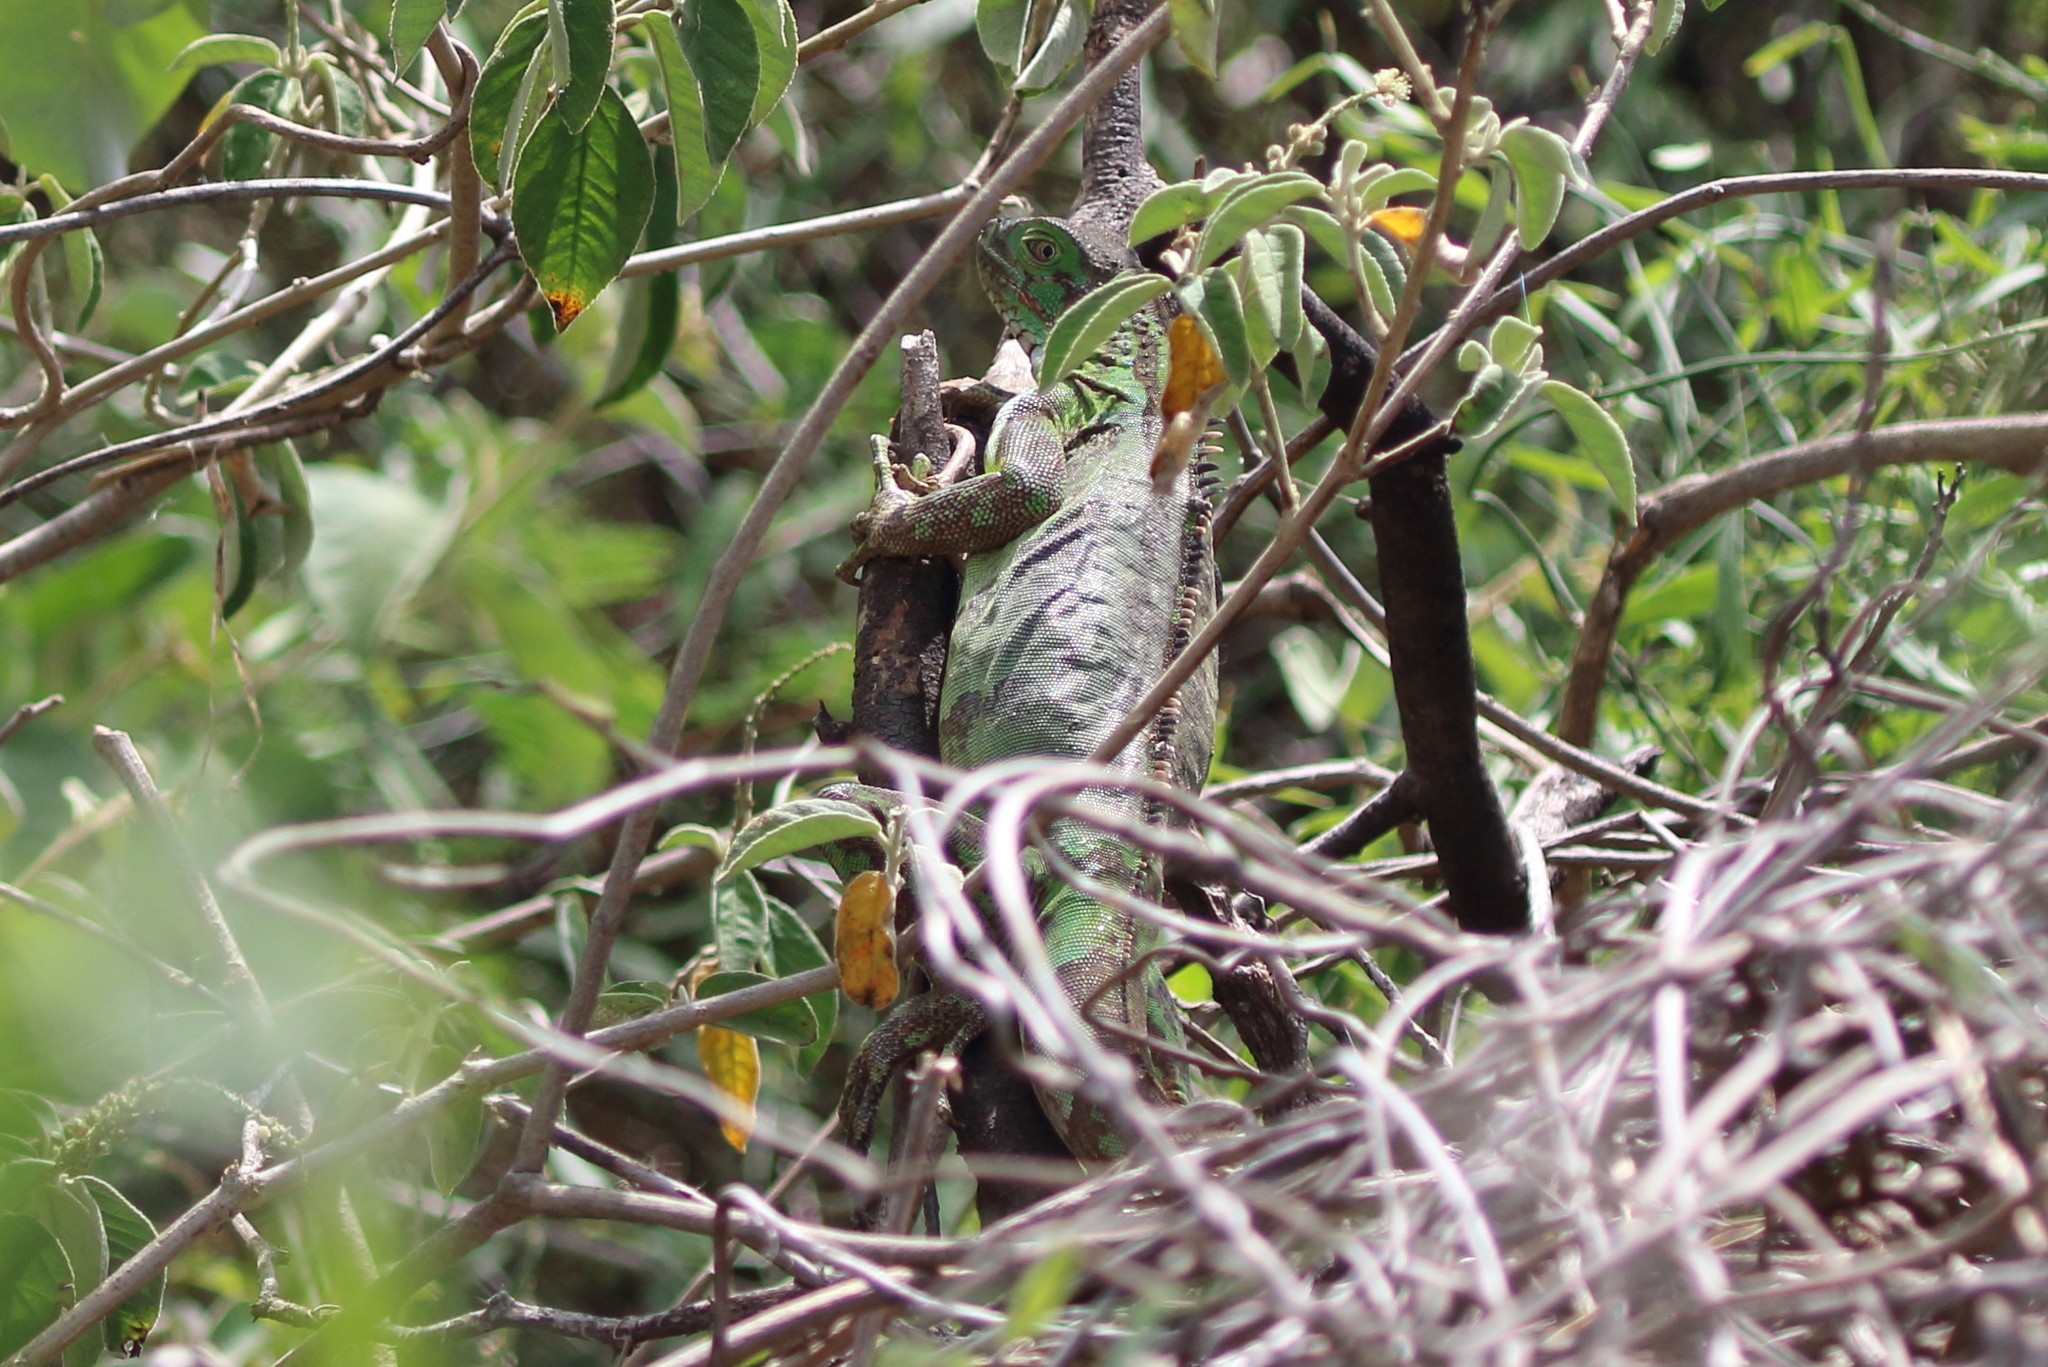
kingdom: Animalia
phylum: Chordata
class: Squamata
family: Iguanidae
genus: Iguana
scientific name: Iguana iguana
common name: Green iguana
